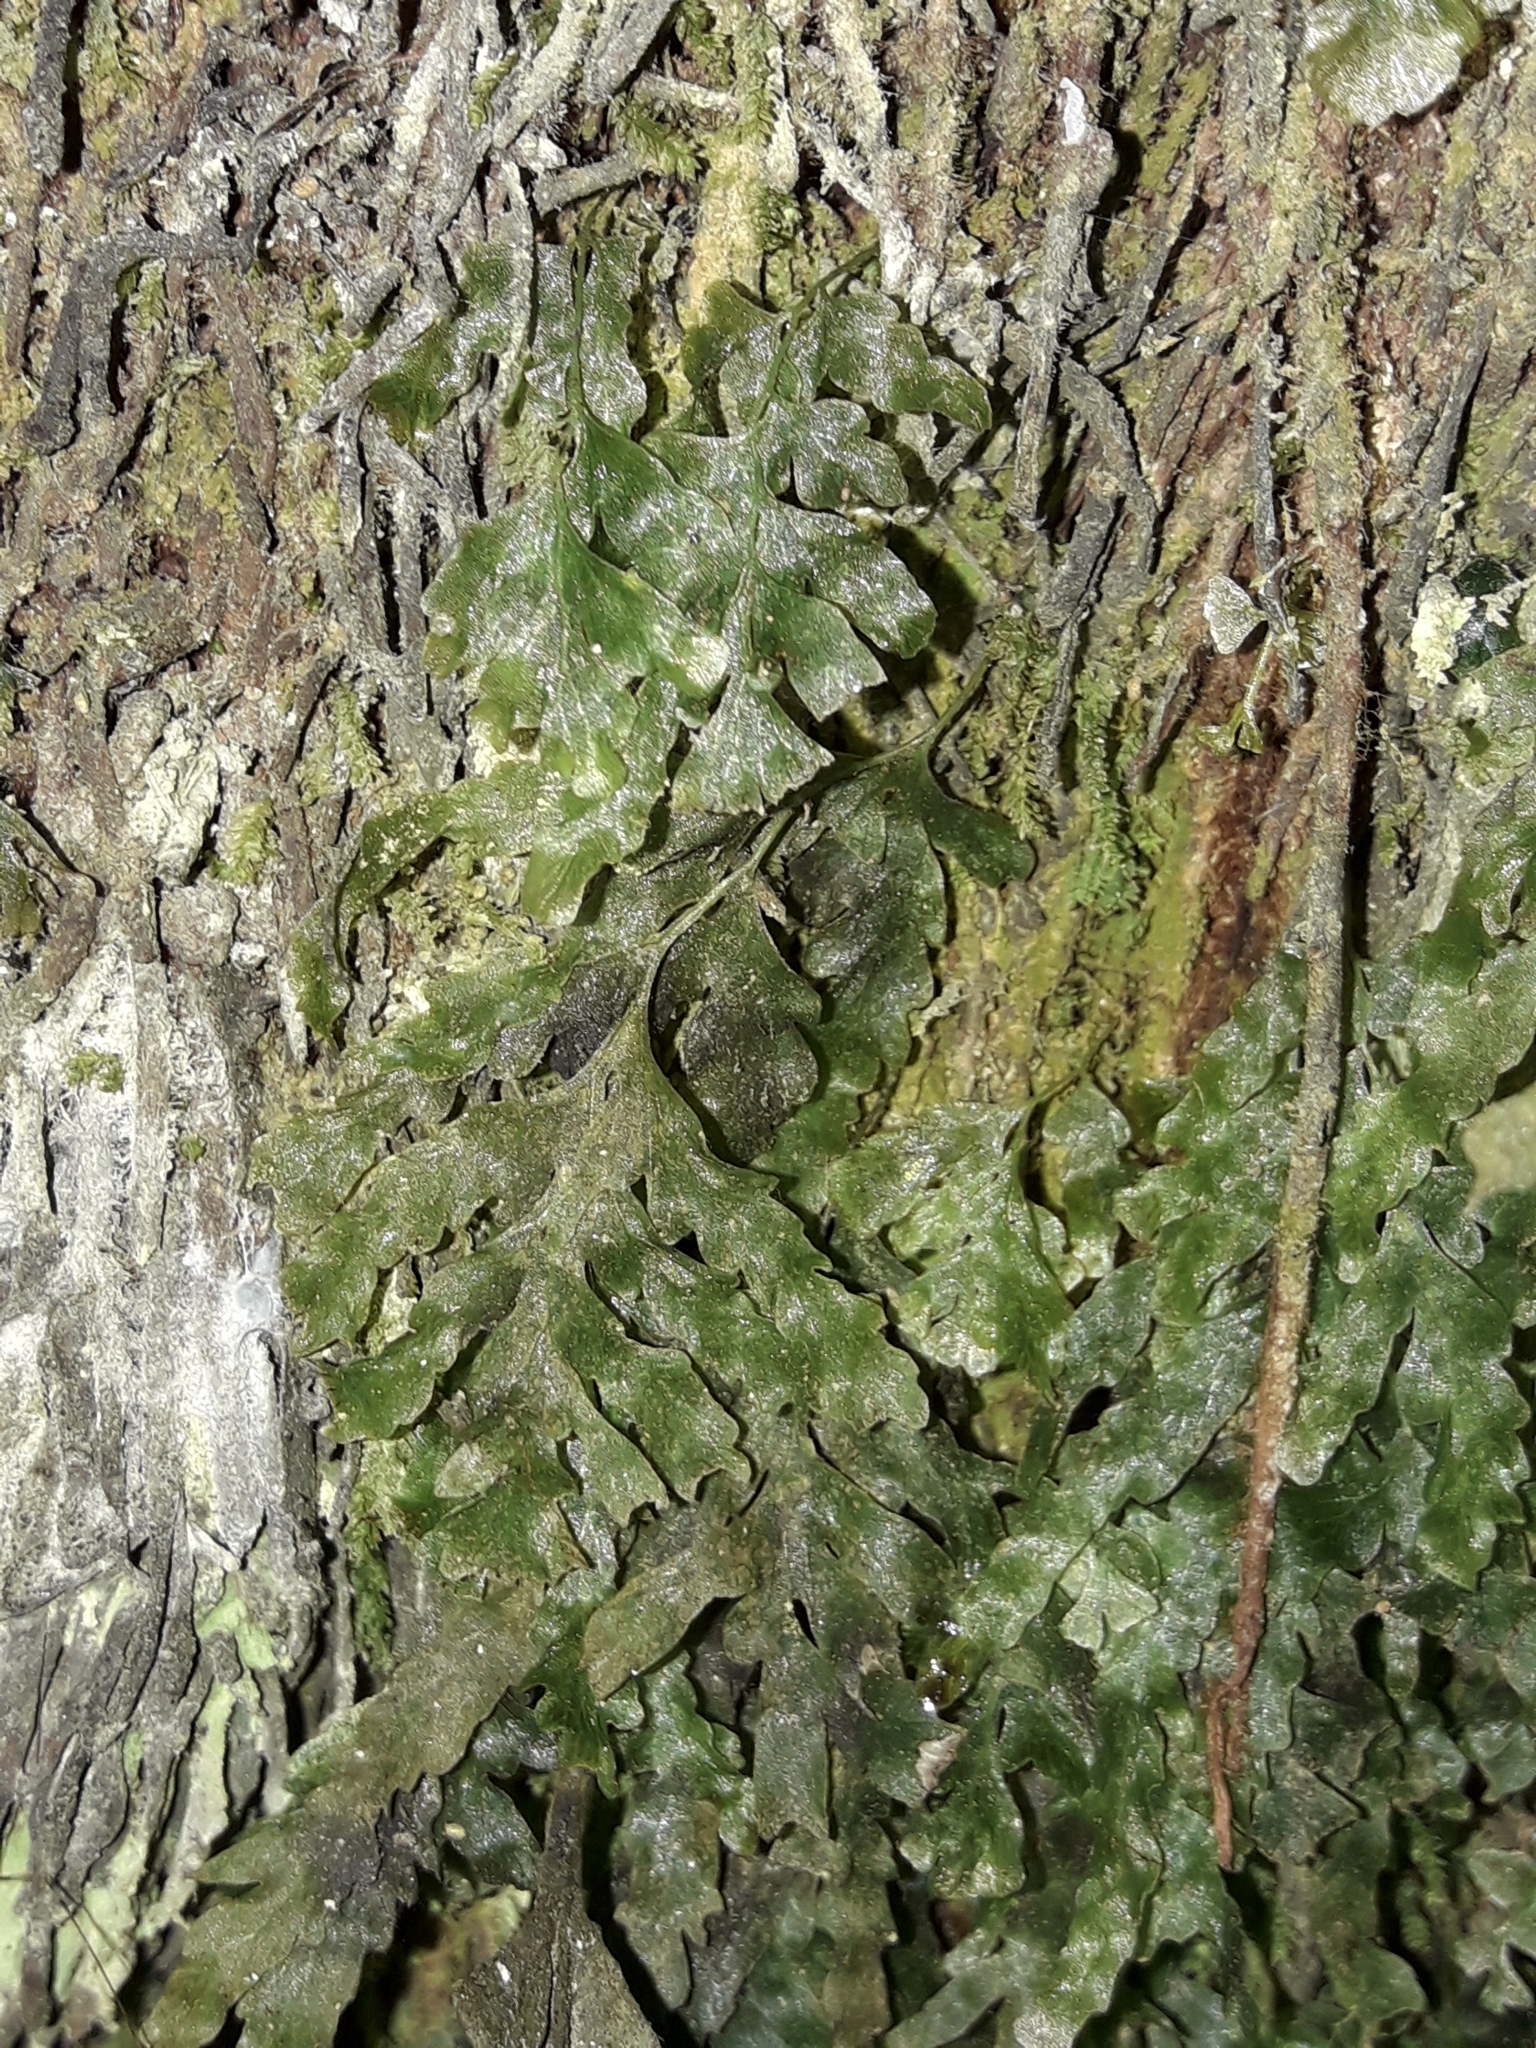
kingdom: Plantae
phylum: Tracheophyta
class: Polypodiopsida
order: Hymenophyllales
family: Hymenophyllaceae
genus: Polyphlebium
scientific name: Polyphlebium venosum
